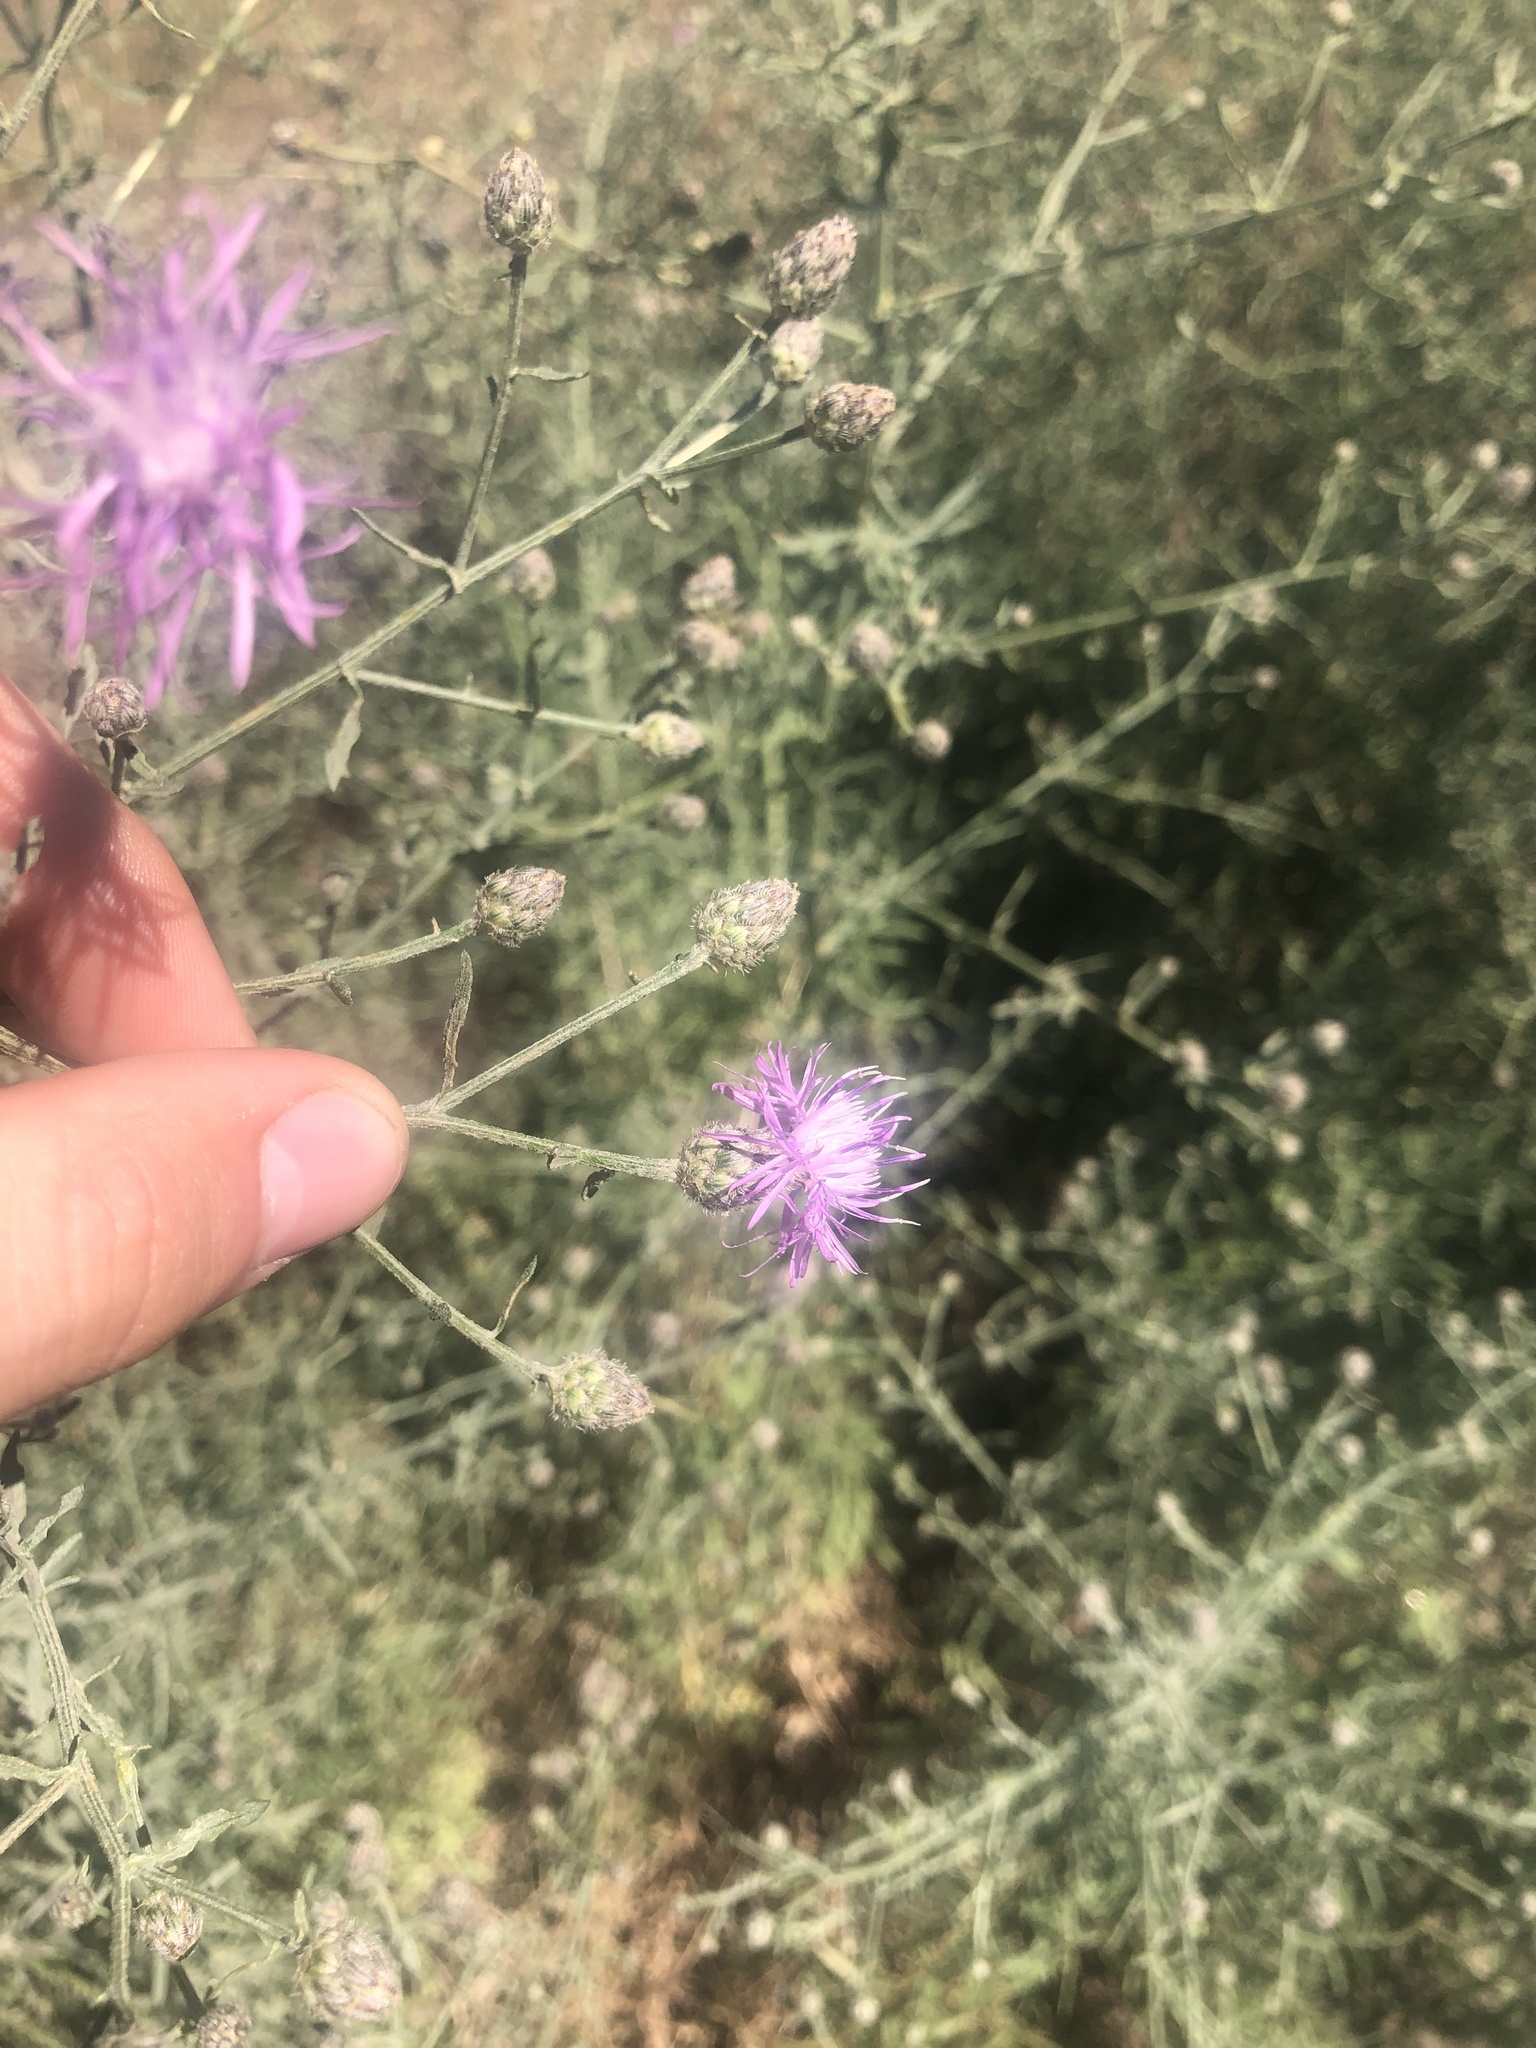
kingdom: Plantae
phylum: Tracheophyta
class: Magnoliopsida
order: Asterales
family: Asteraceae
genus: Centaurea
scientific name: Centaurea stoebe
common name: Spotted knapweed
